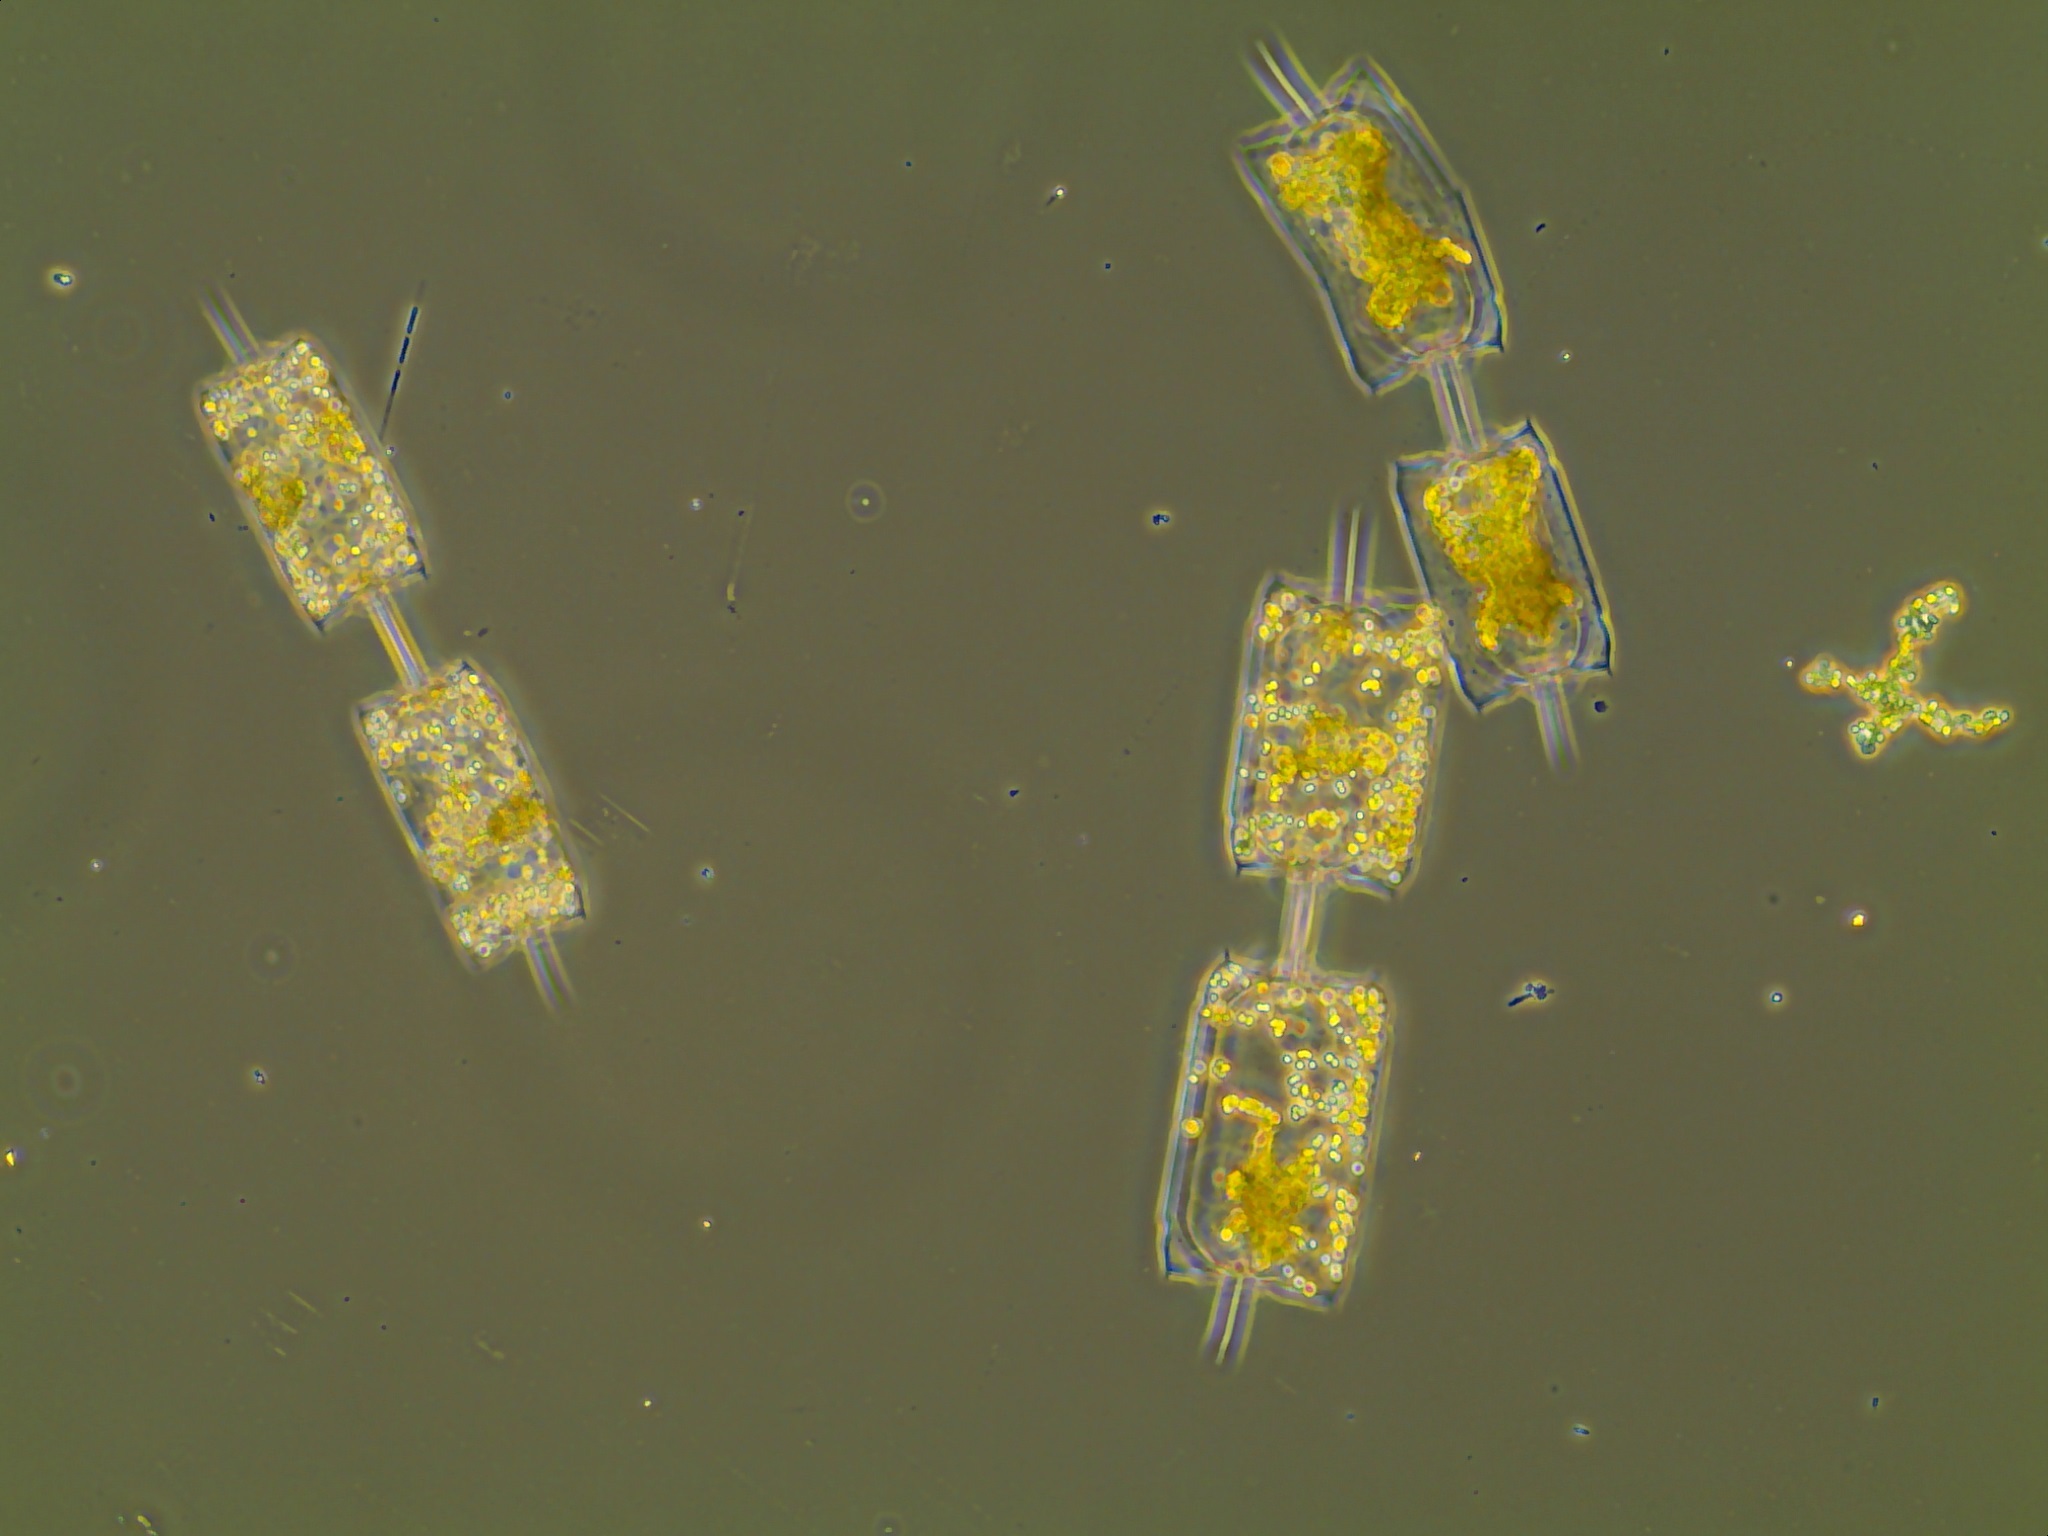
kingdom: Chromista
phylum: Ochrophyta
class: Bacillariophyceae
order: Lithodesmiales
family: Lithodesmiaceae
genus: Ditylum
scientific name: Ditylum brightwellii
